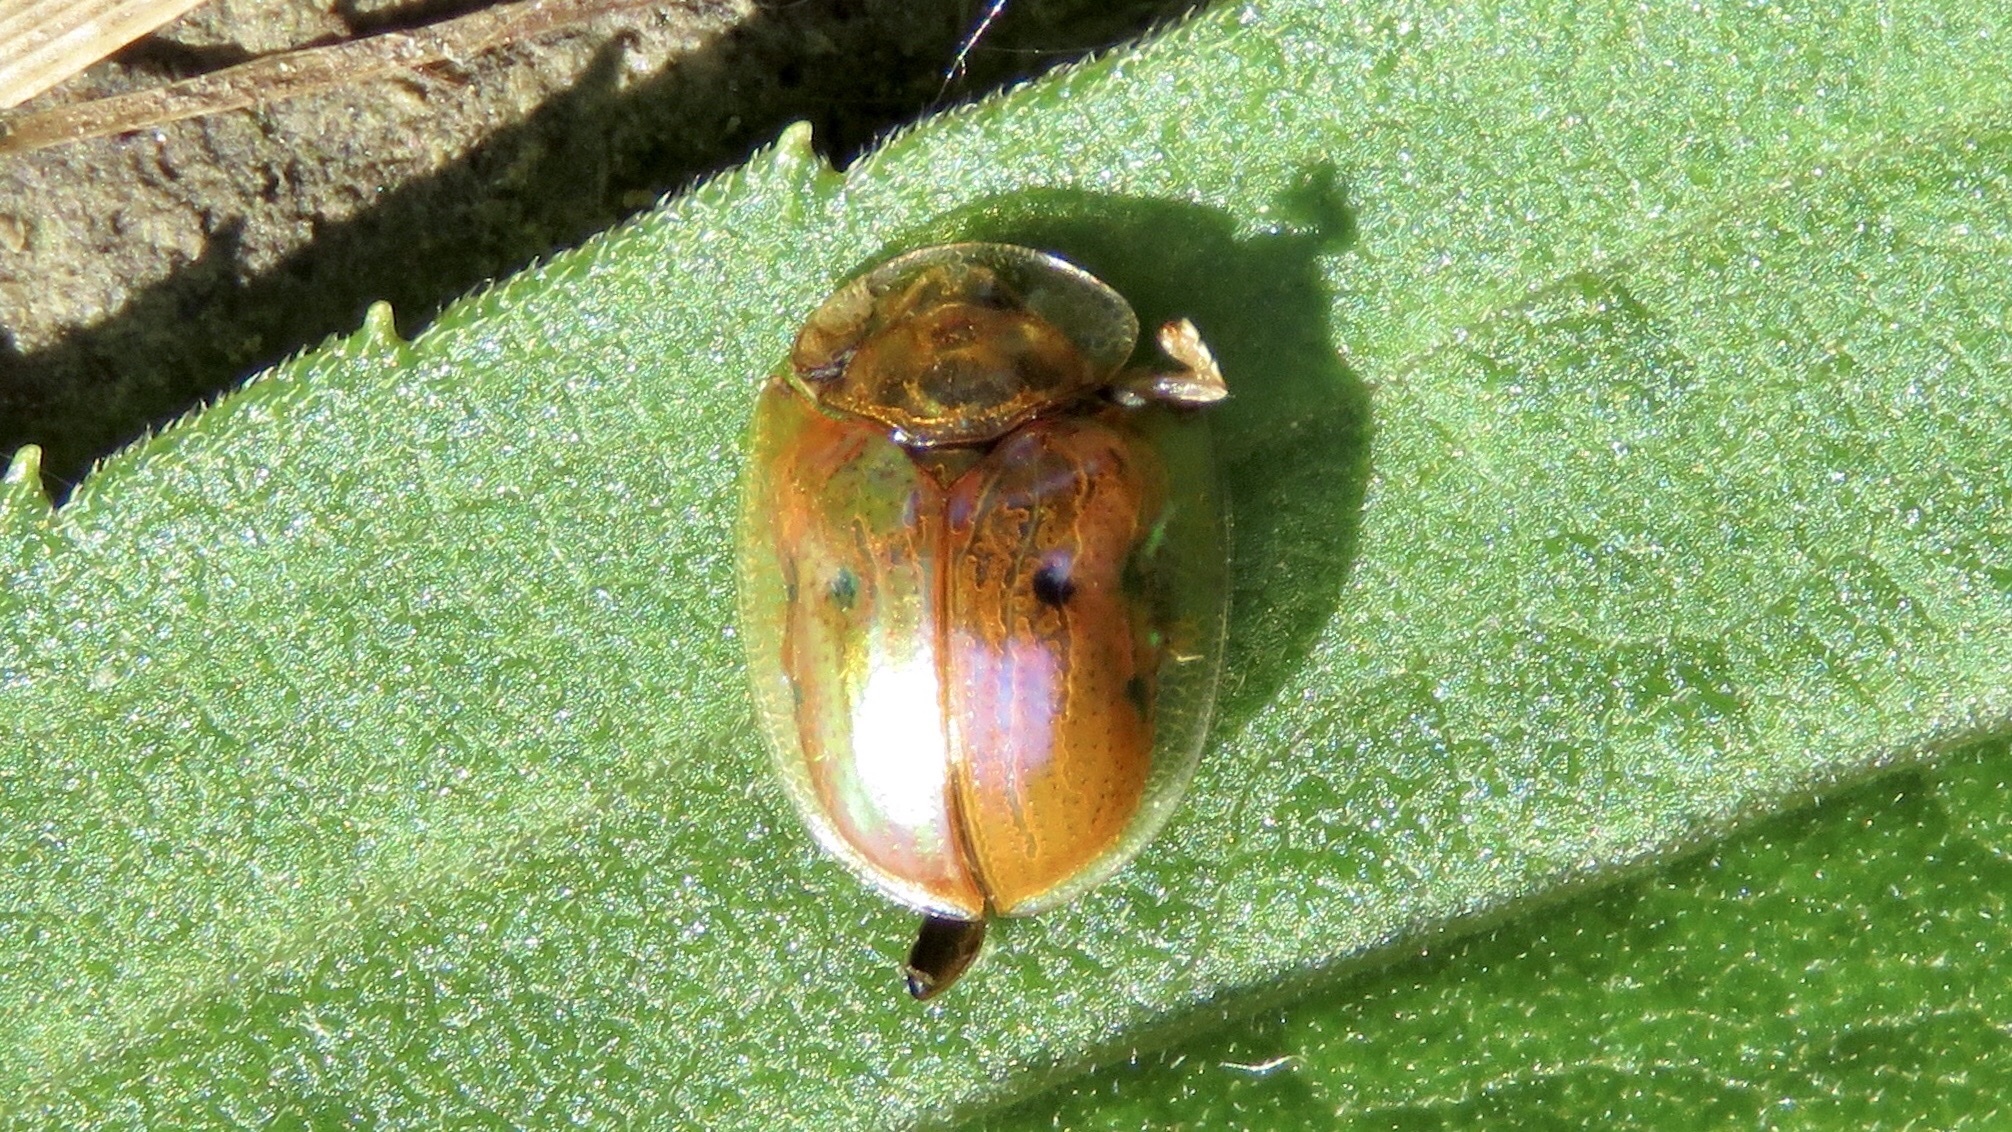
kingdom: Animalia
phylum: Arthropoda
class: Insecta
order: Coleoptera
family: Chrysomelidae
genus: Charidotella
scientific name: Charidotella sexpunctata
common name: Golden tortoise beetle
